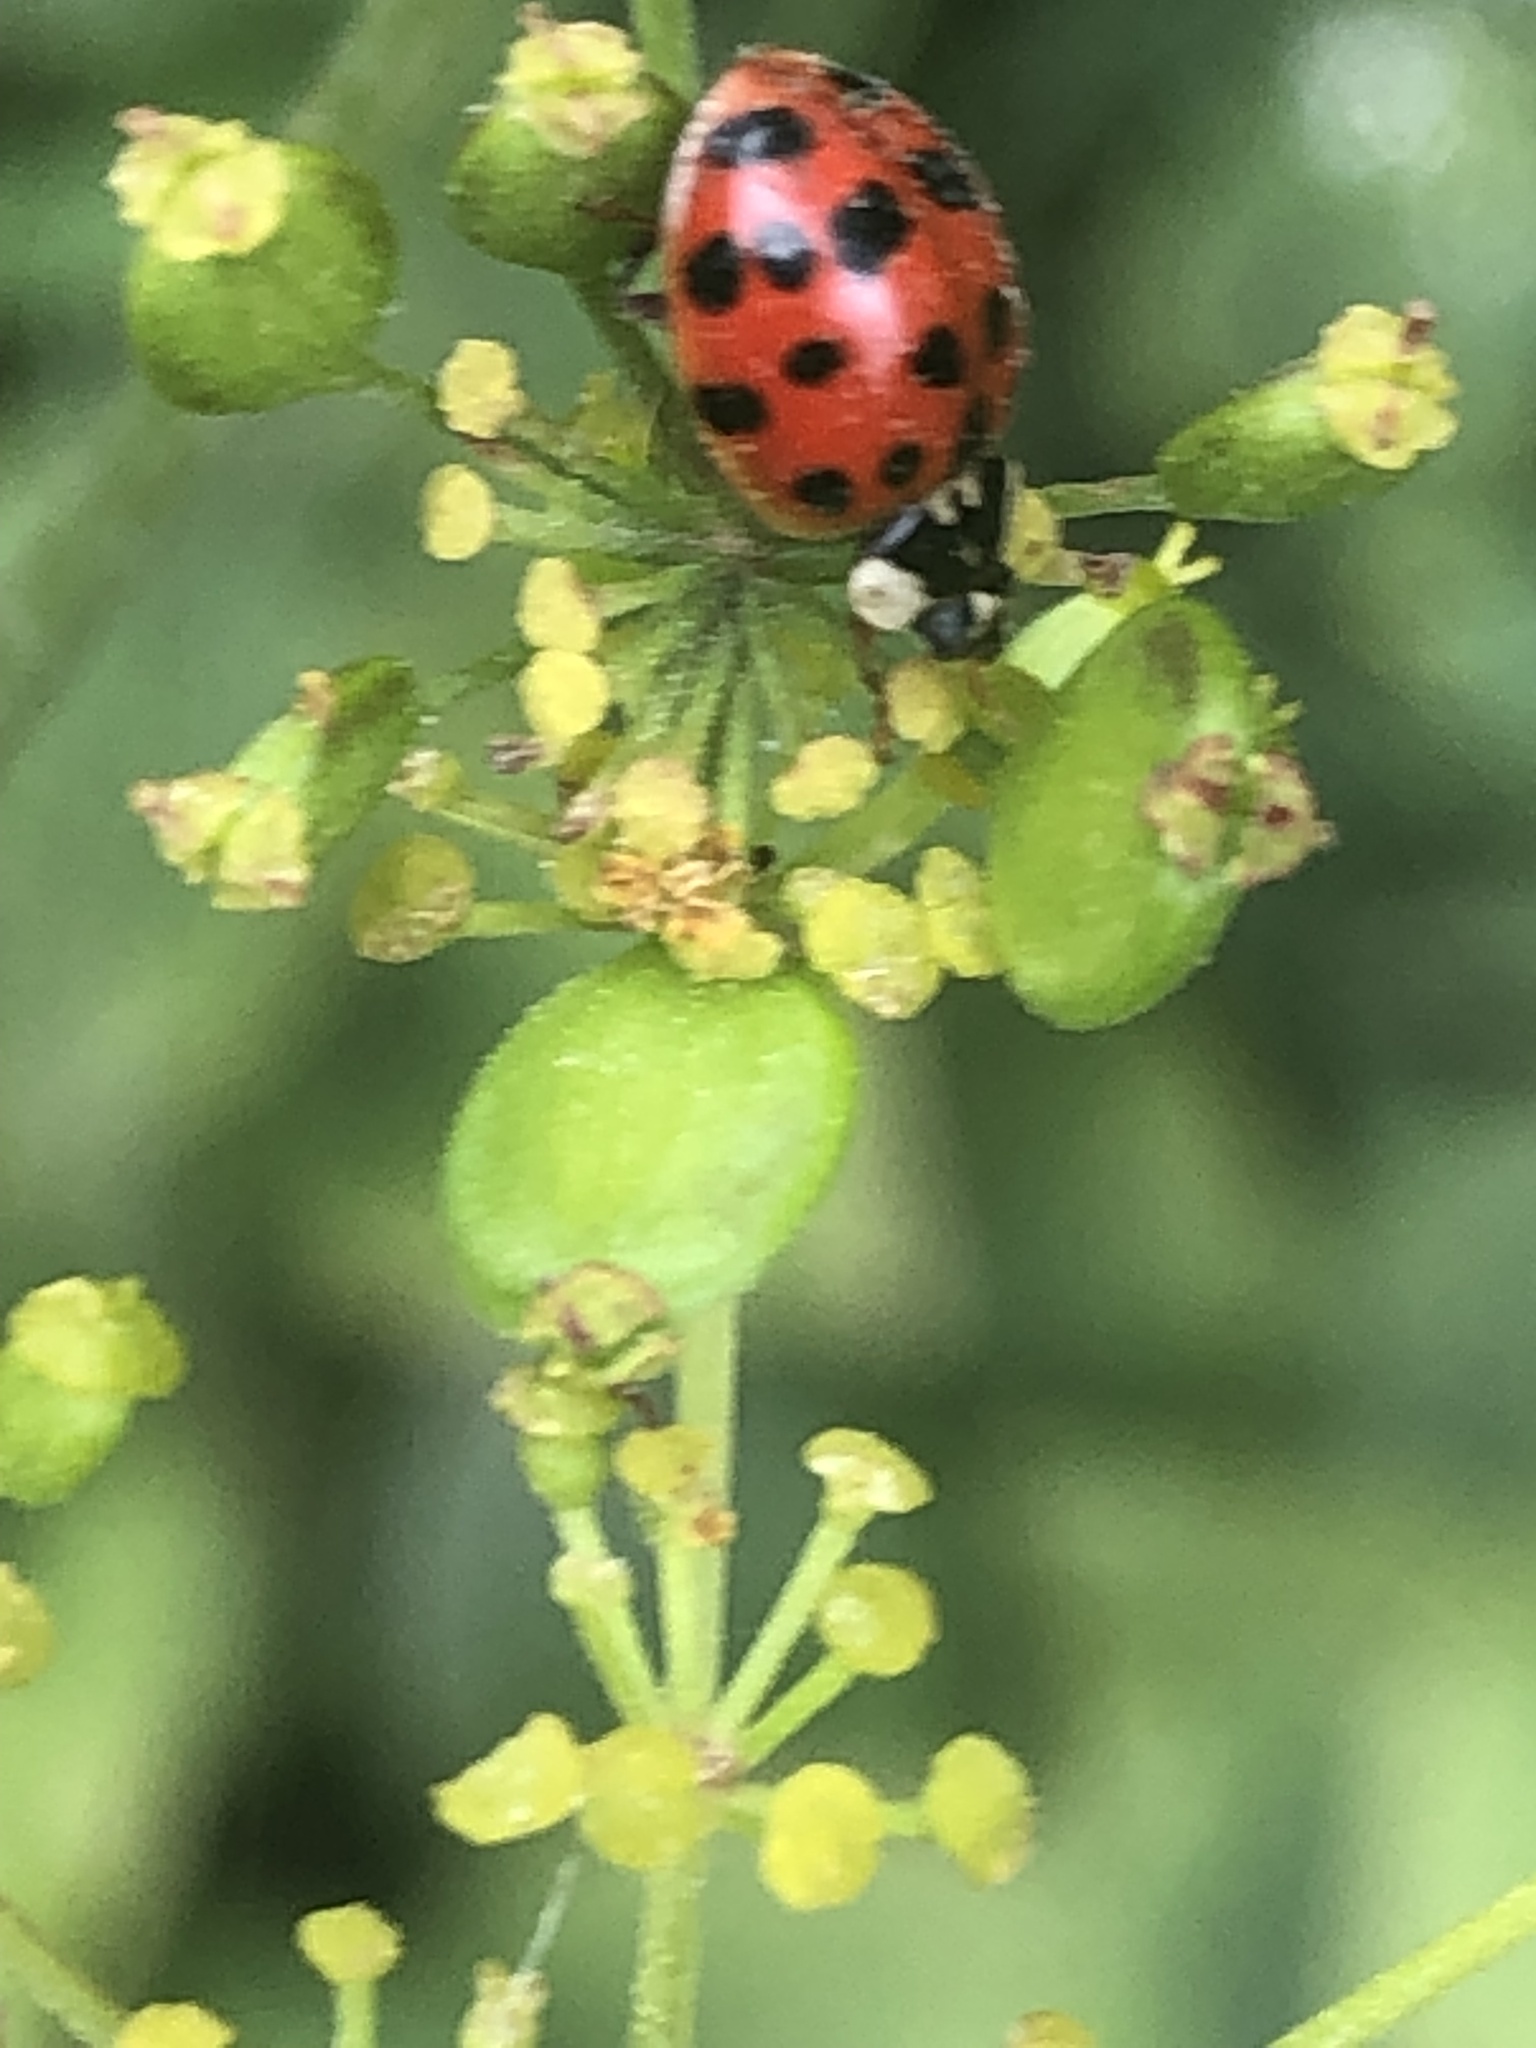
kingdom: Animalia
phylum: Arthropoda
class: Insecta
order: Coleoptera
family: Coccinellidae
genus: Harmonia
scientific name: Harmonia axyridis
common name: Harlequin ladybird
